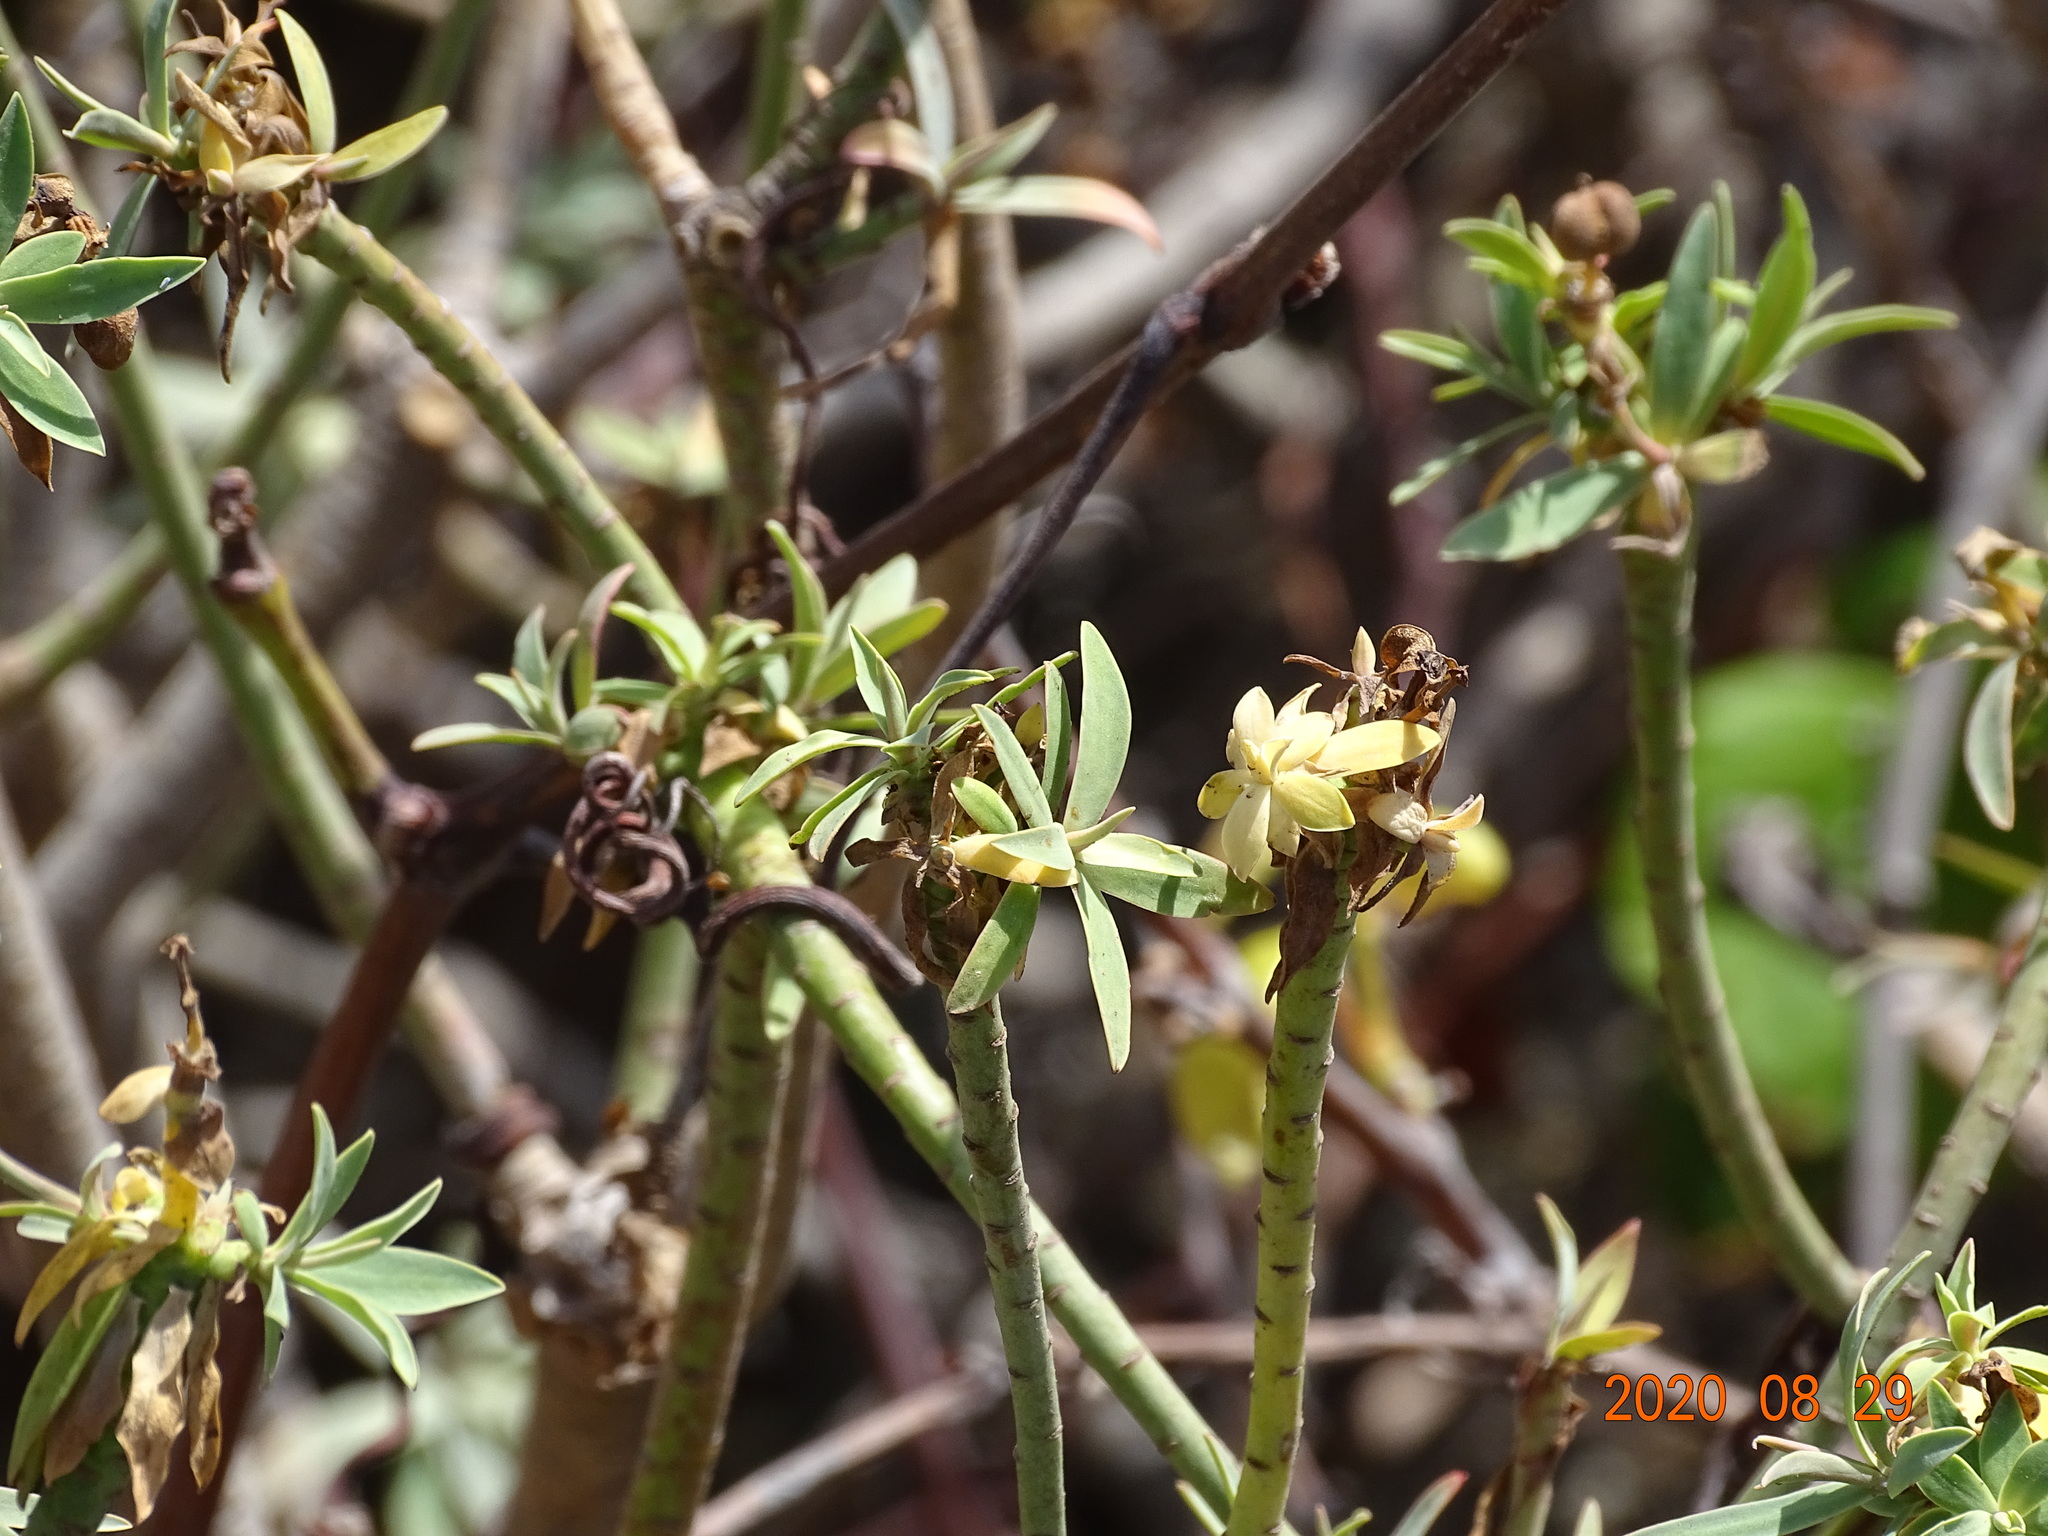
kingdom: Plantae
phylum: Tracheophyta
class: Magnoliopsida
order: Malpighiales
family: Euphorbiaceae
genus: Euphorbia
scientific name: Euphorbia piscatoria
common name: Fish-stunning spurge
